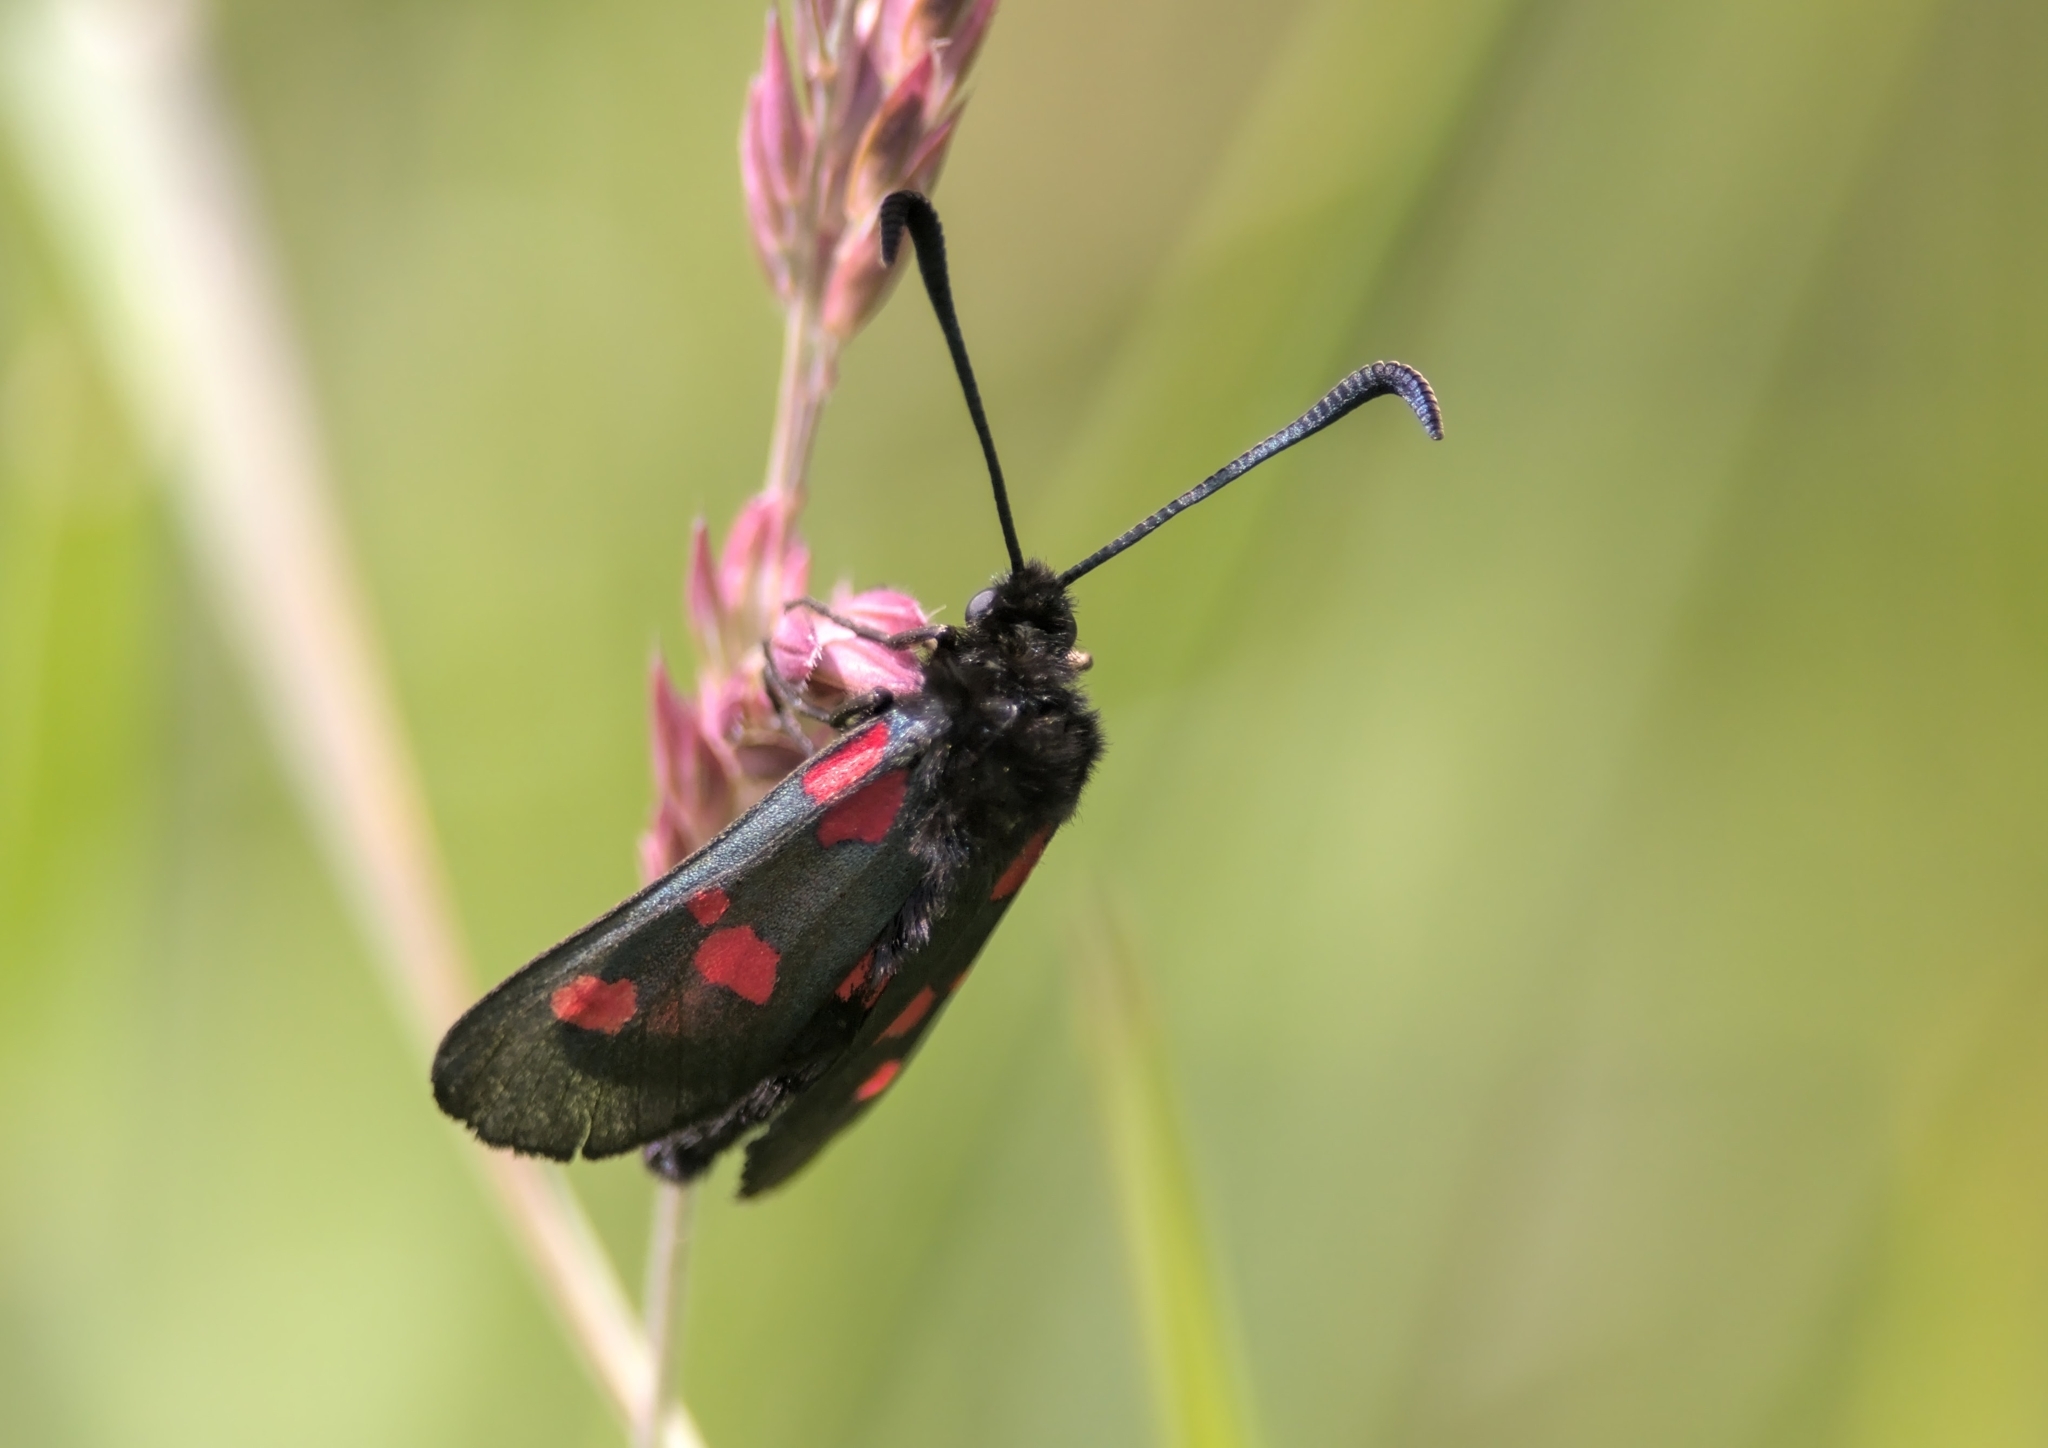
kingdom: Animalia
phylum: Arthropoda
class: Insecta
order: Lepidoptera
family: Zygaenidae
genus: Zygaena
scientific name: Zygaena trifolii
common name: Five-spot burnet
